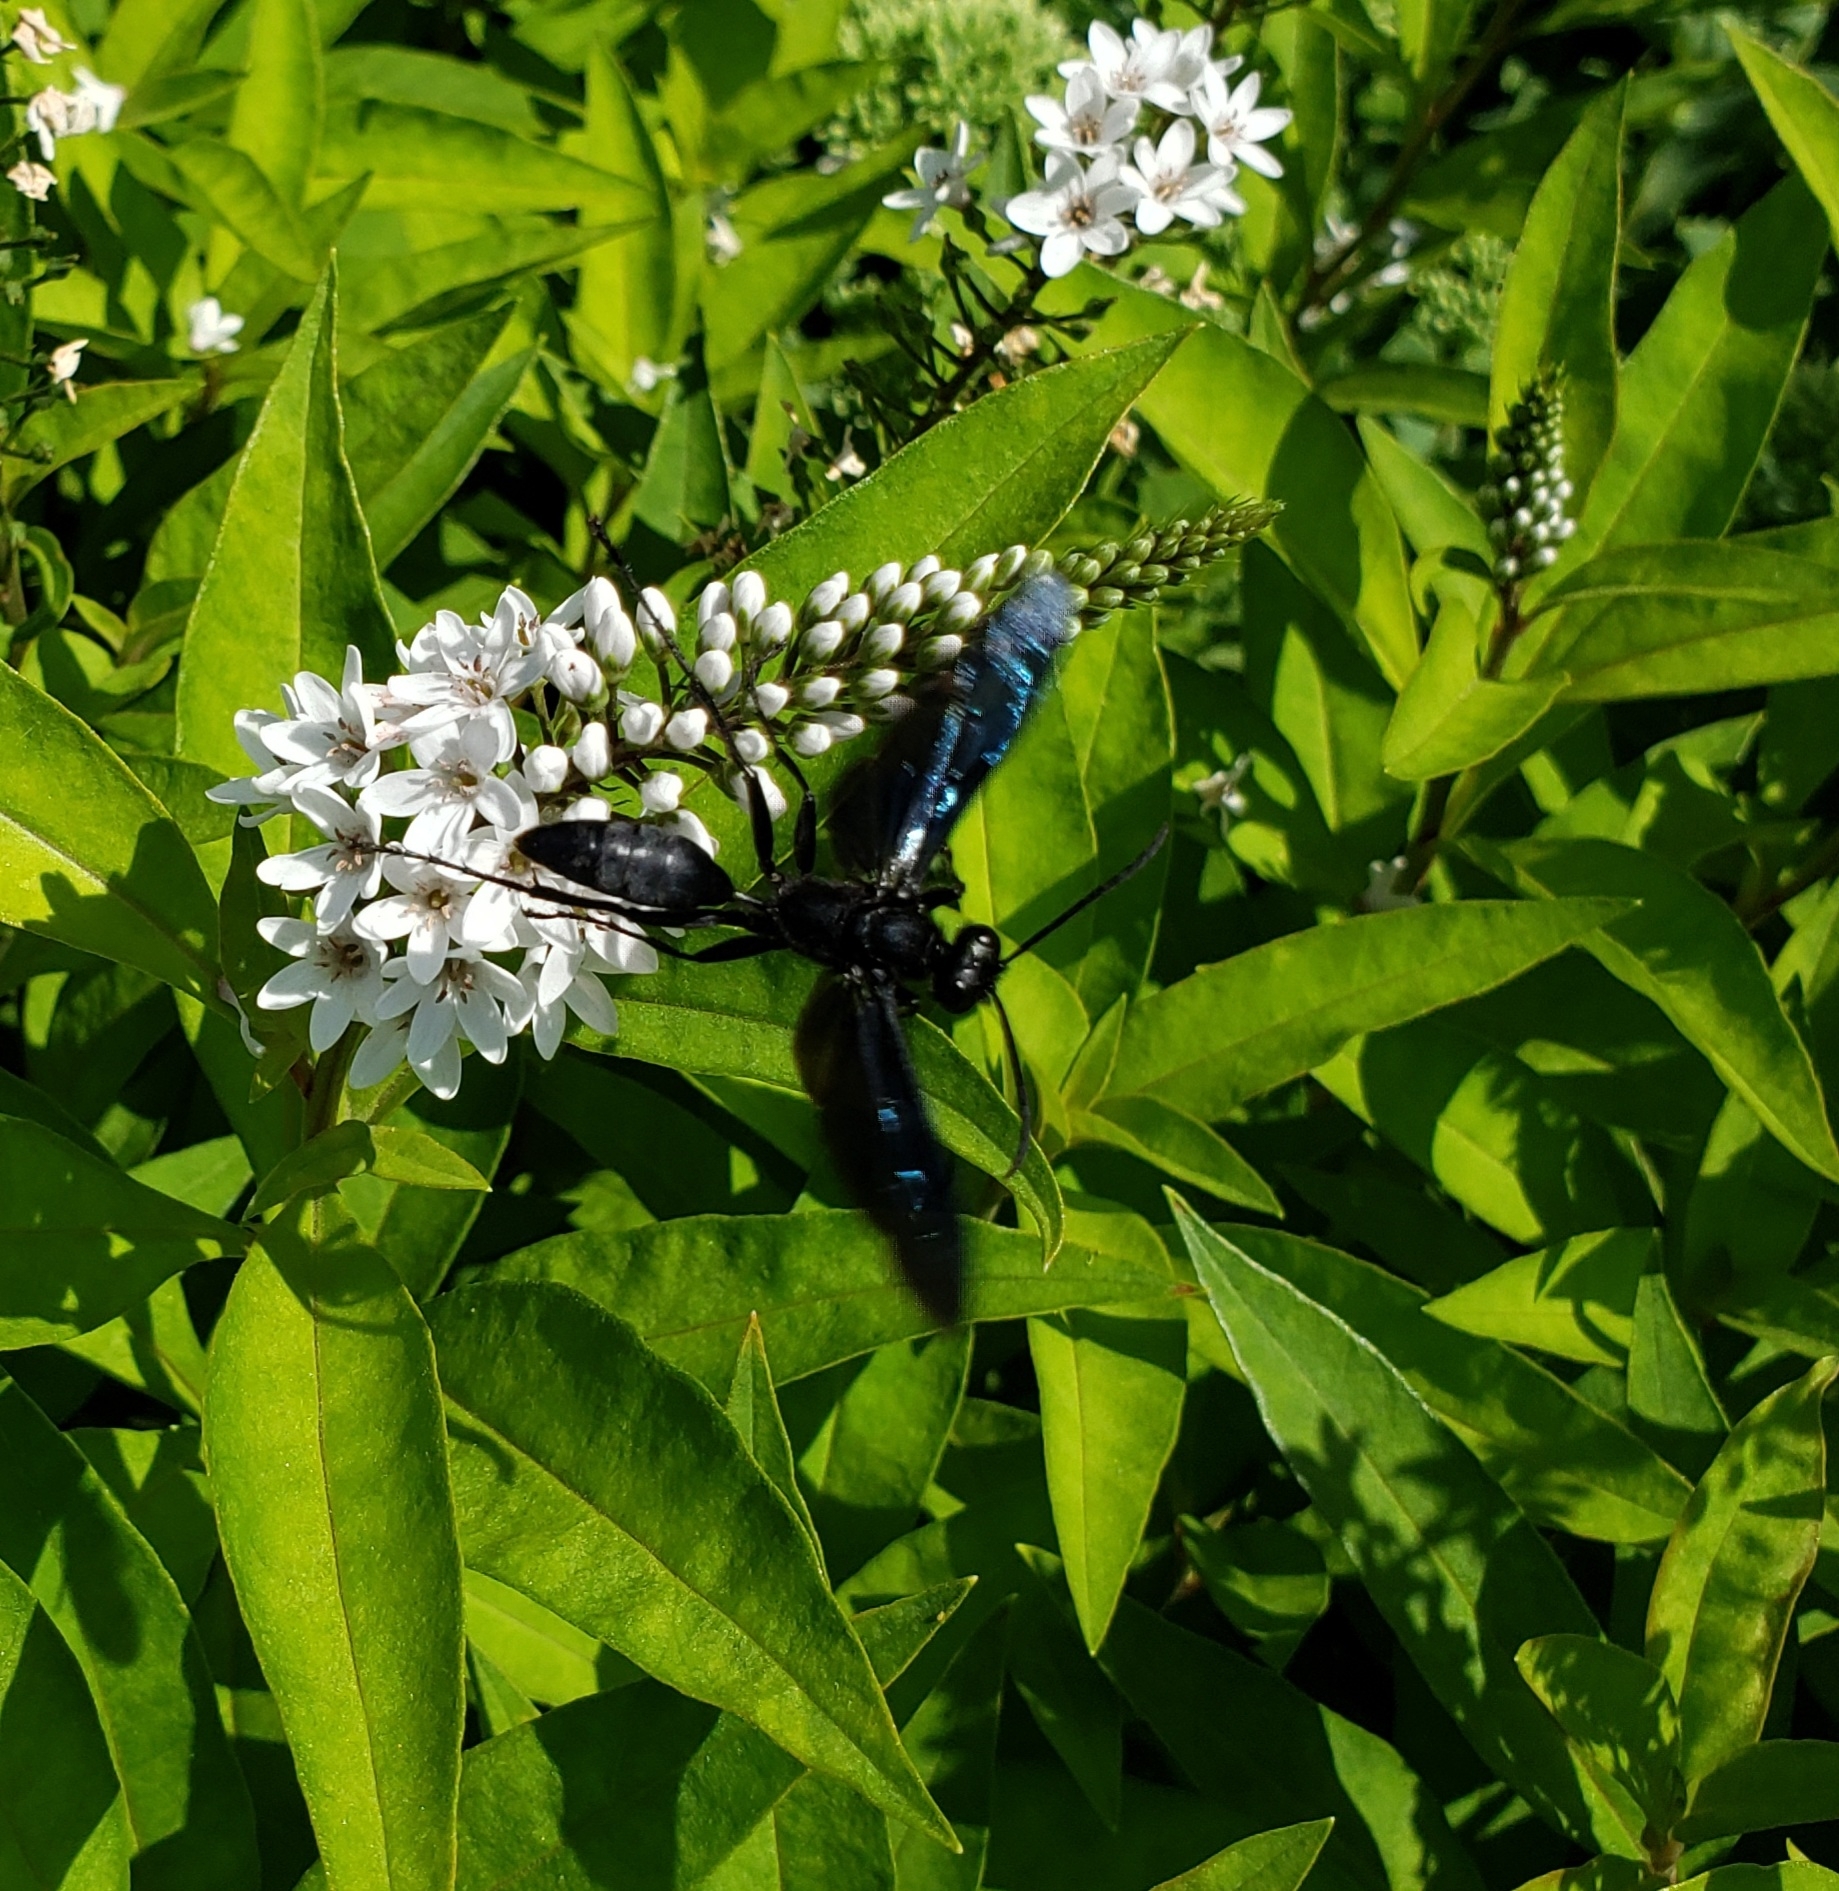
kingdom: Animalia
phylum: Arthropoda
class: Insecta
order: Hymenoptera
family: Sphecidae
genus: Sphex
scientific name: Sphex pensylvanicus
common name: Great black digger wasp
